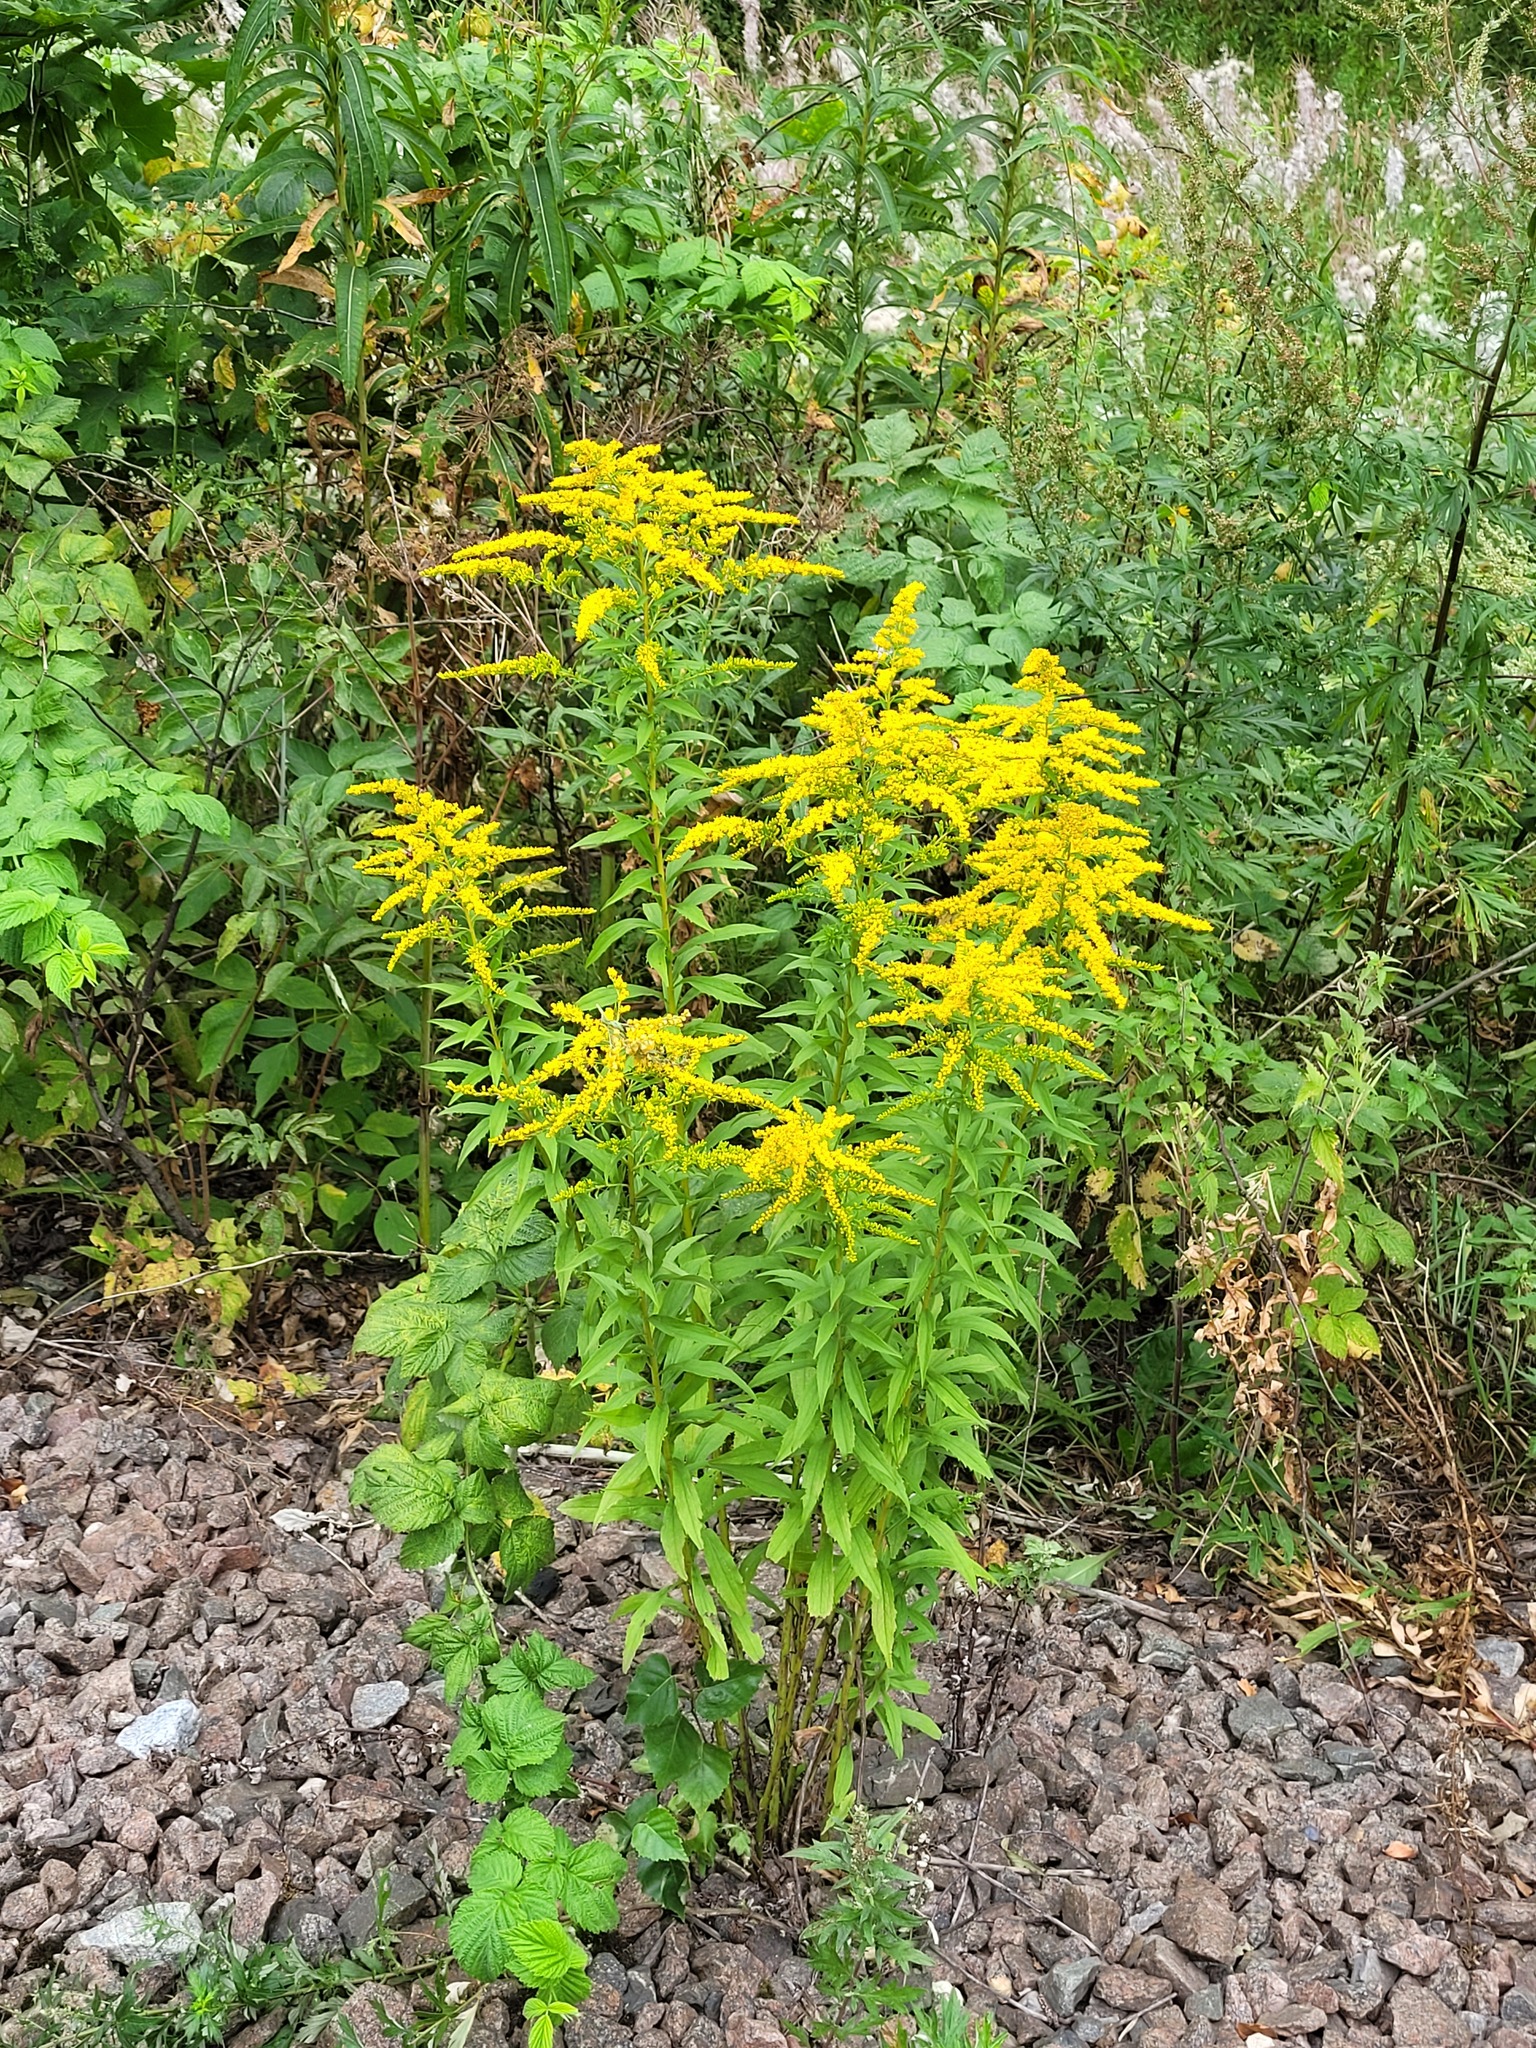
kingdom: Plantae
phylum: Tracheophyta
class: Magnoliopsida
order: Asterales
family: Asteraceae
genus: Solidago
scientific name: Solidago canadensis
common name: Canada goldenrod
